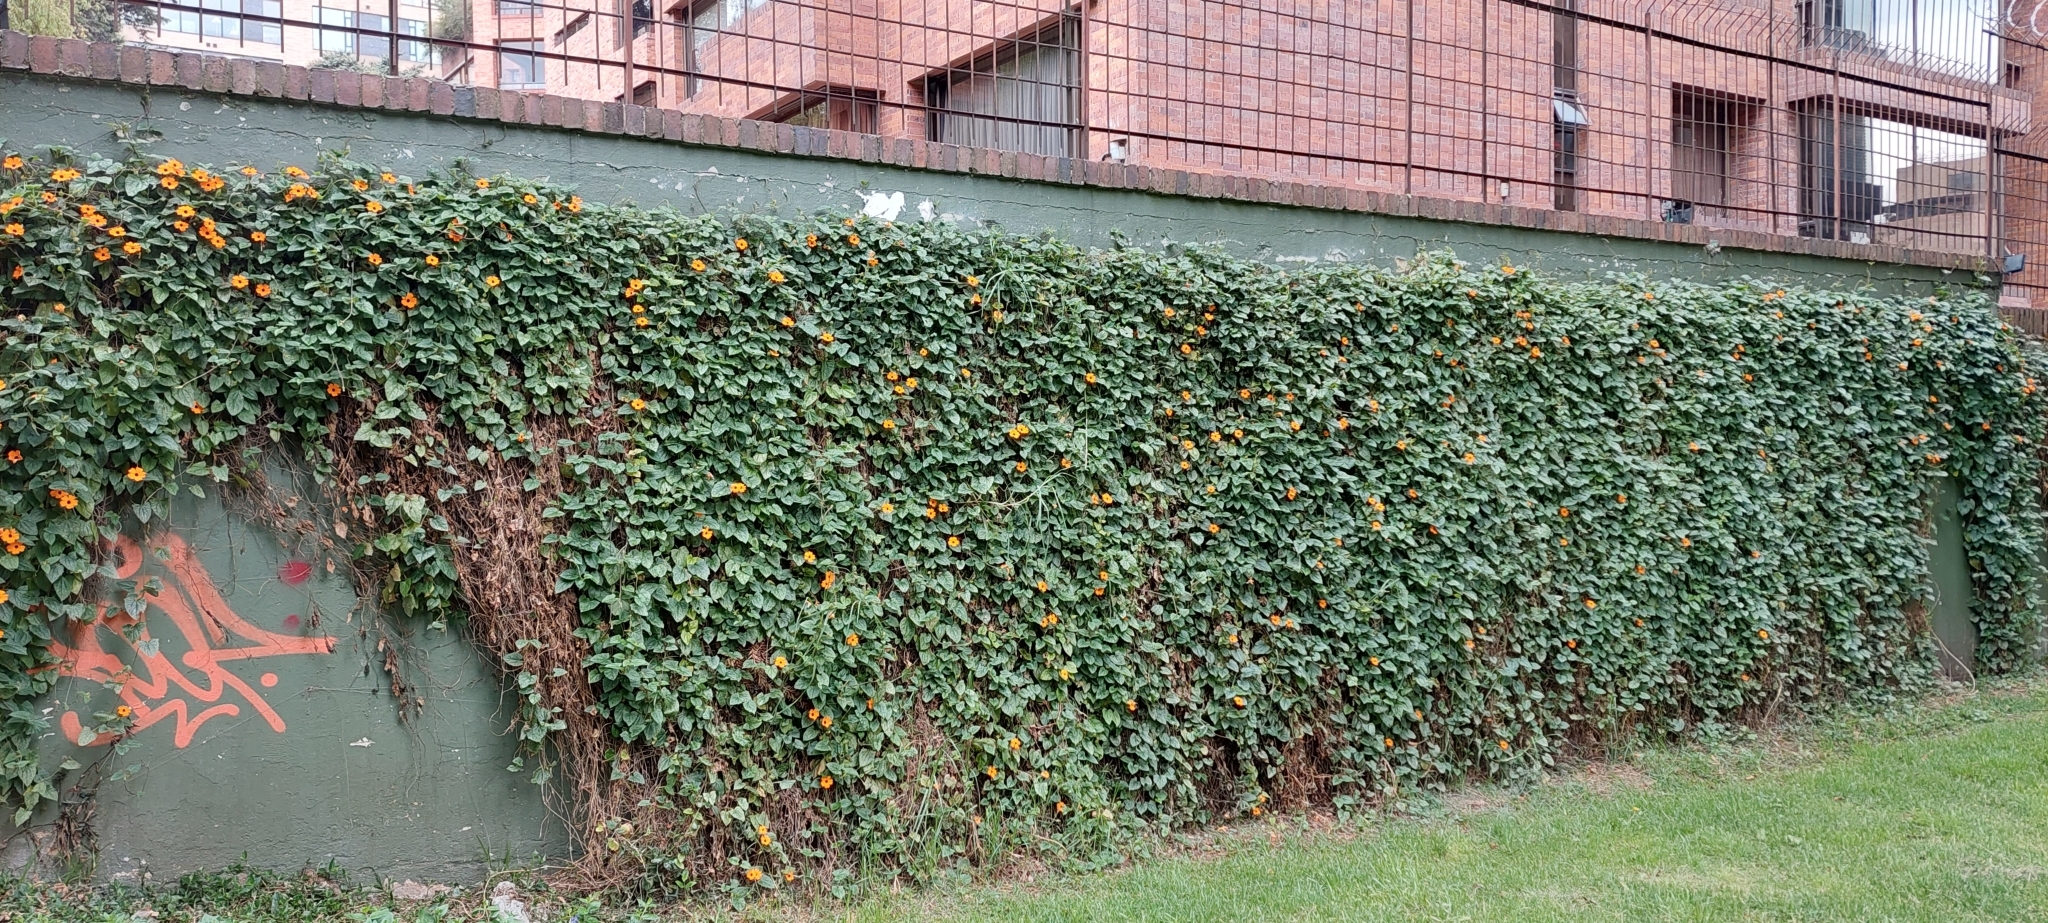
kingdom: Plantae
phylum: Tracheophyta
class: Magnoliopsida
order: Lamiales
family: Acanthaceae
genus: Thunbergia
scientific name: Thunbergia alata
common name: Blackeyed susan vine
